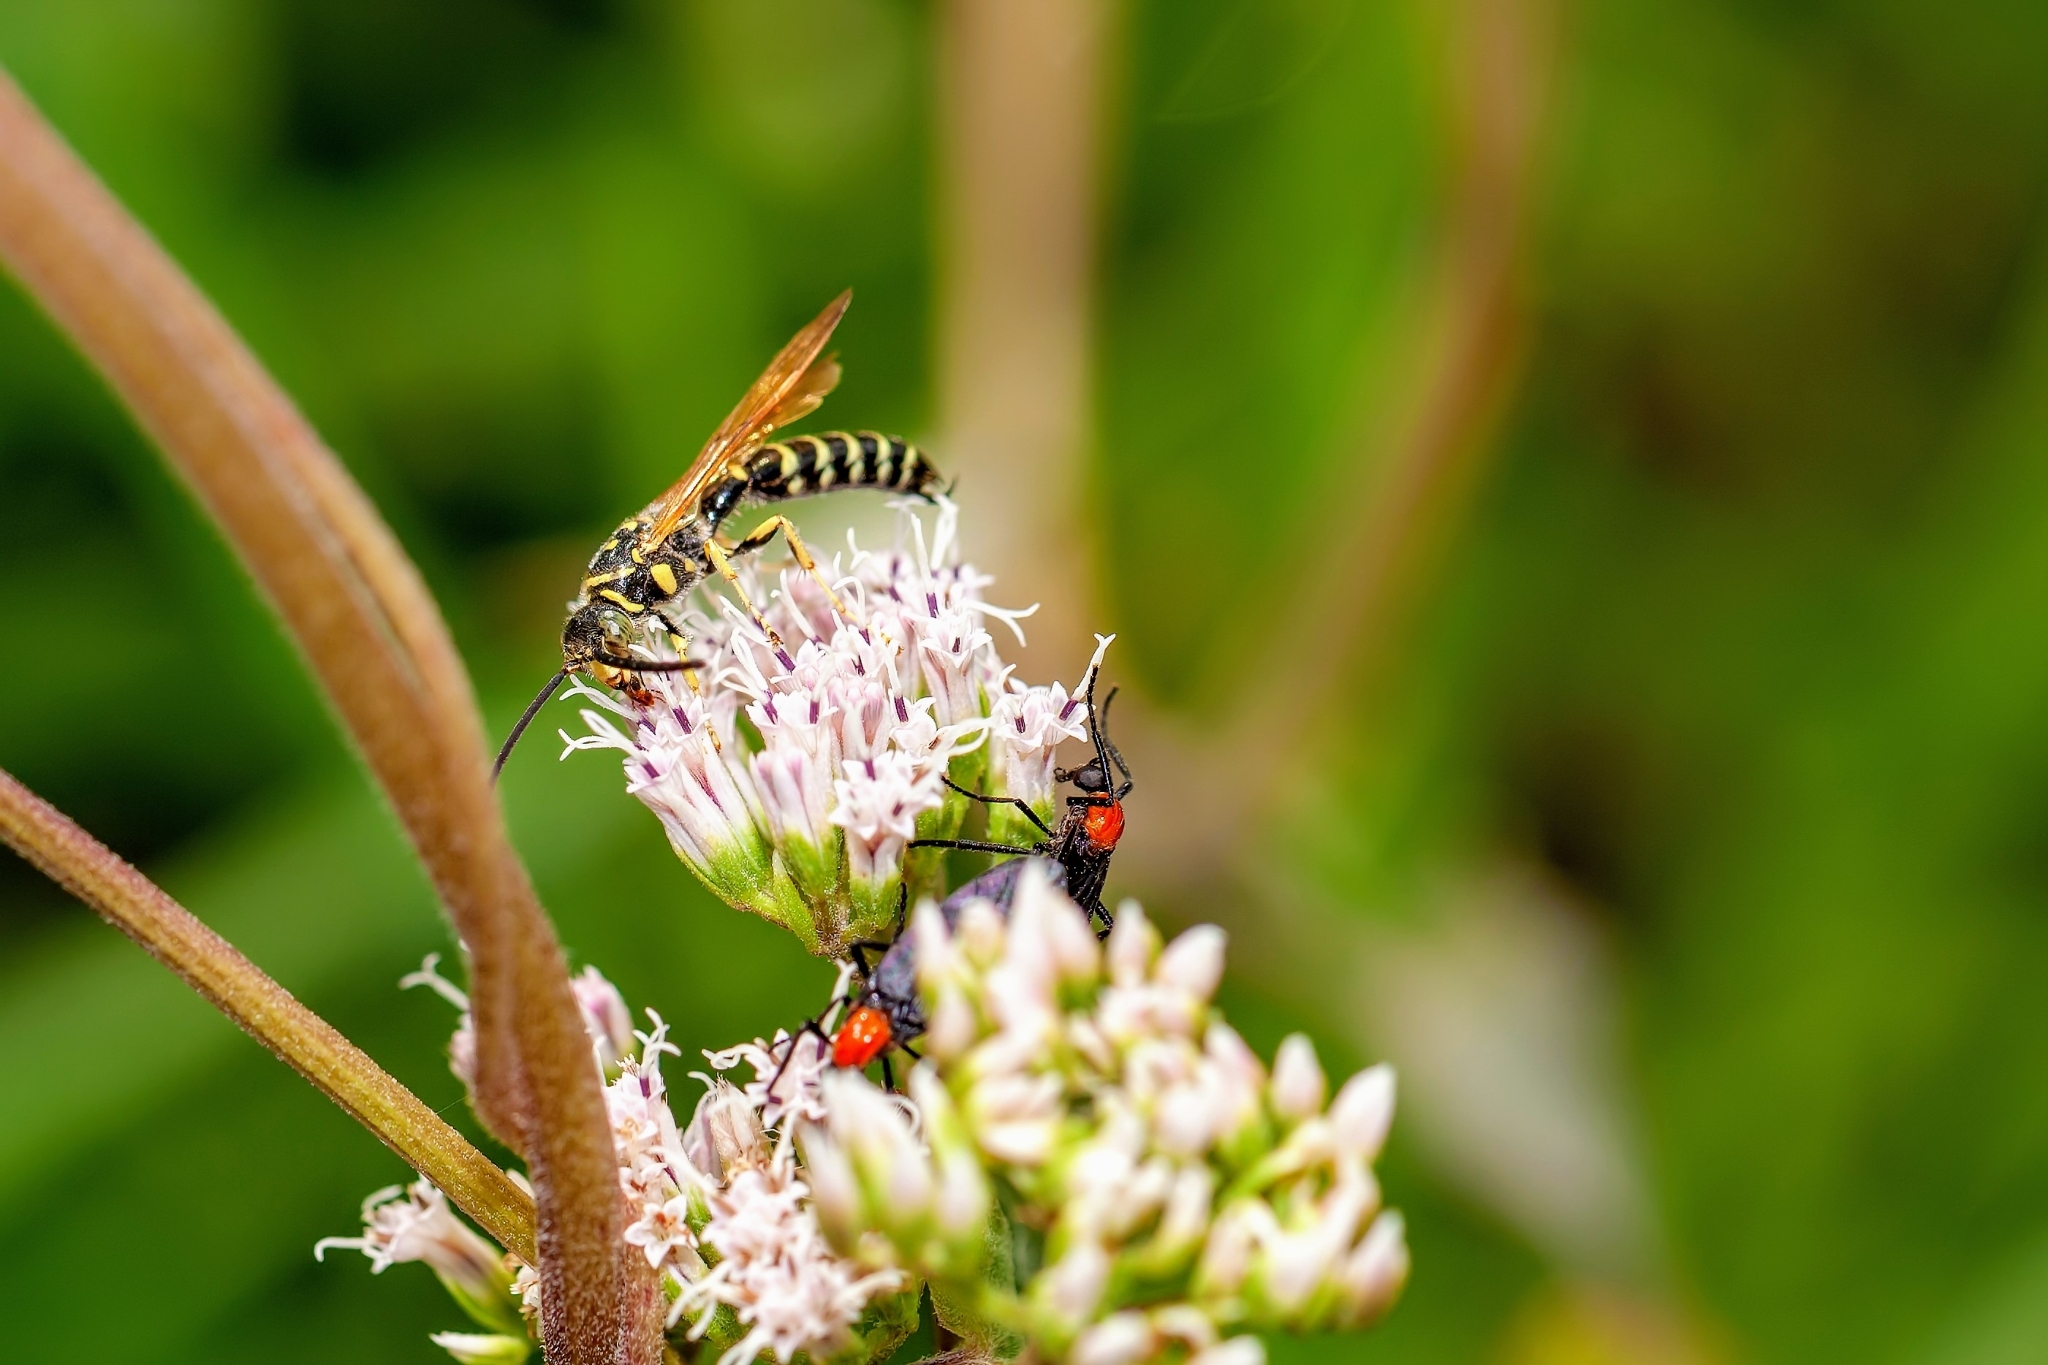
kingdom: Animalia
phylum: Arthropoda
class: Insecta
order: Hymenoptera
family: Tiphiidae
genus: Myzinum
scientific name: Myzinum
